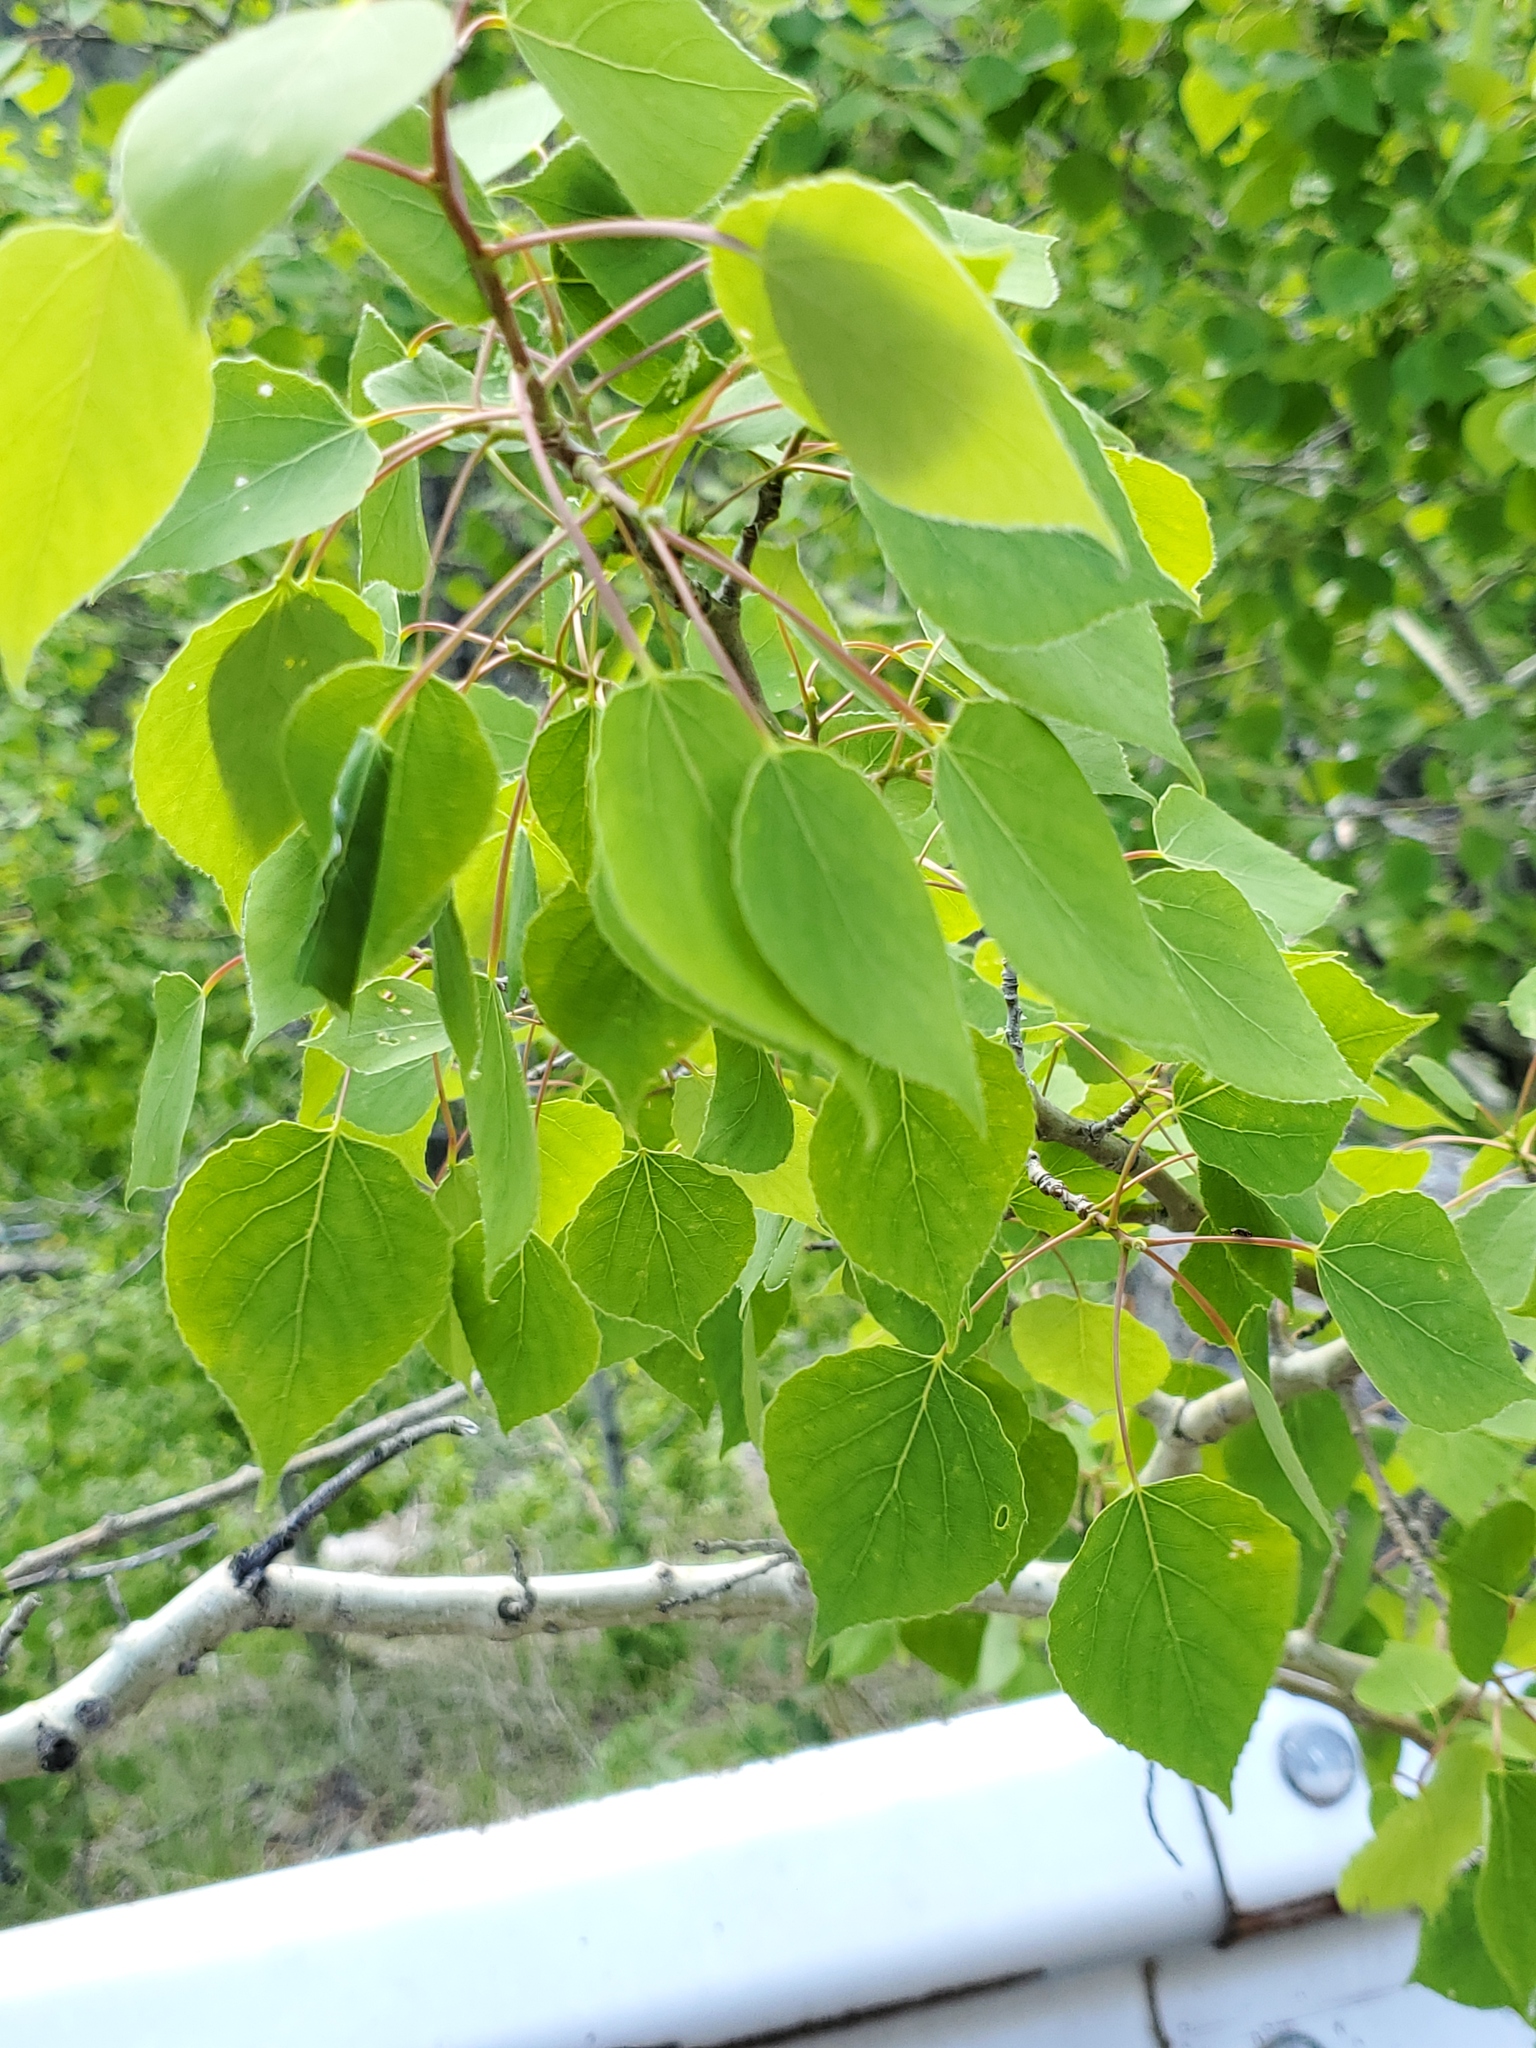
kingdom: Plantae
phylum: Tracheophyta
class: Magnoliopsida
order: Malpighiales
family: Salicaceae
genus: Populus
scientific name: Populus tremuloides
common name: Quaking aspen
